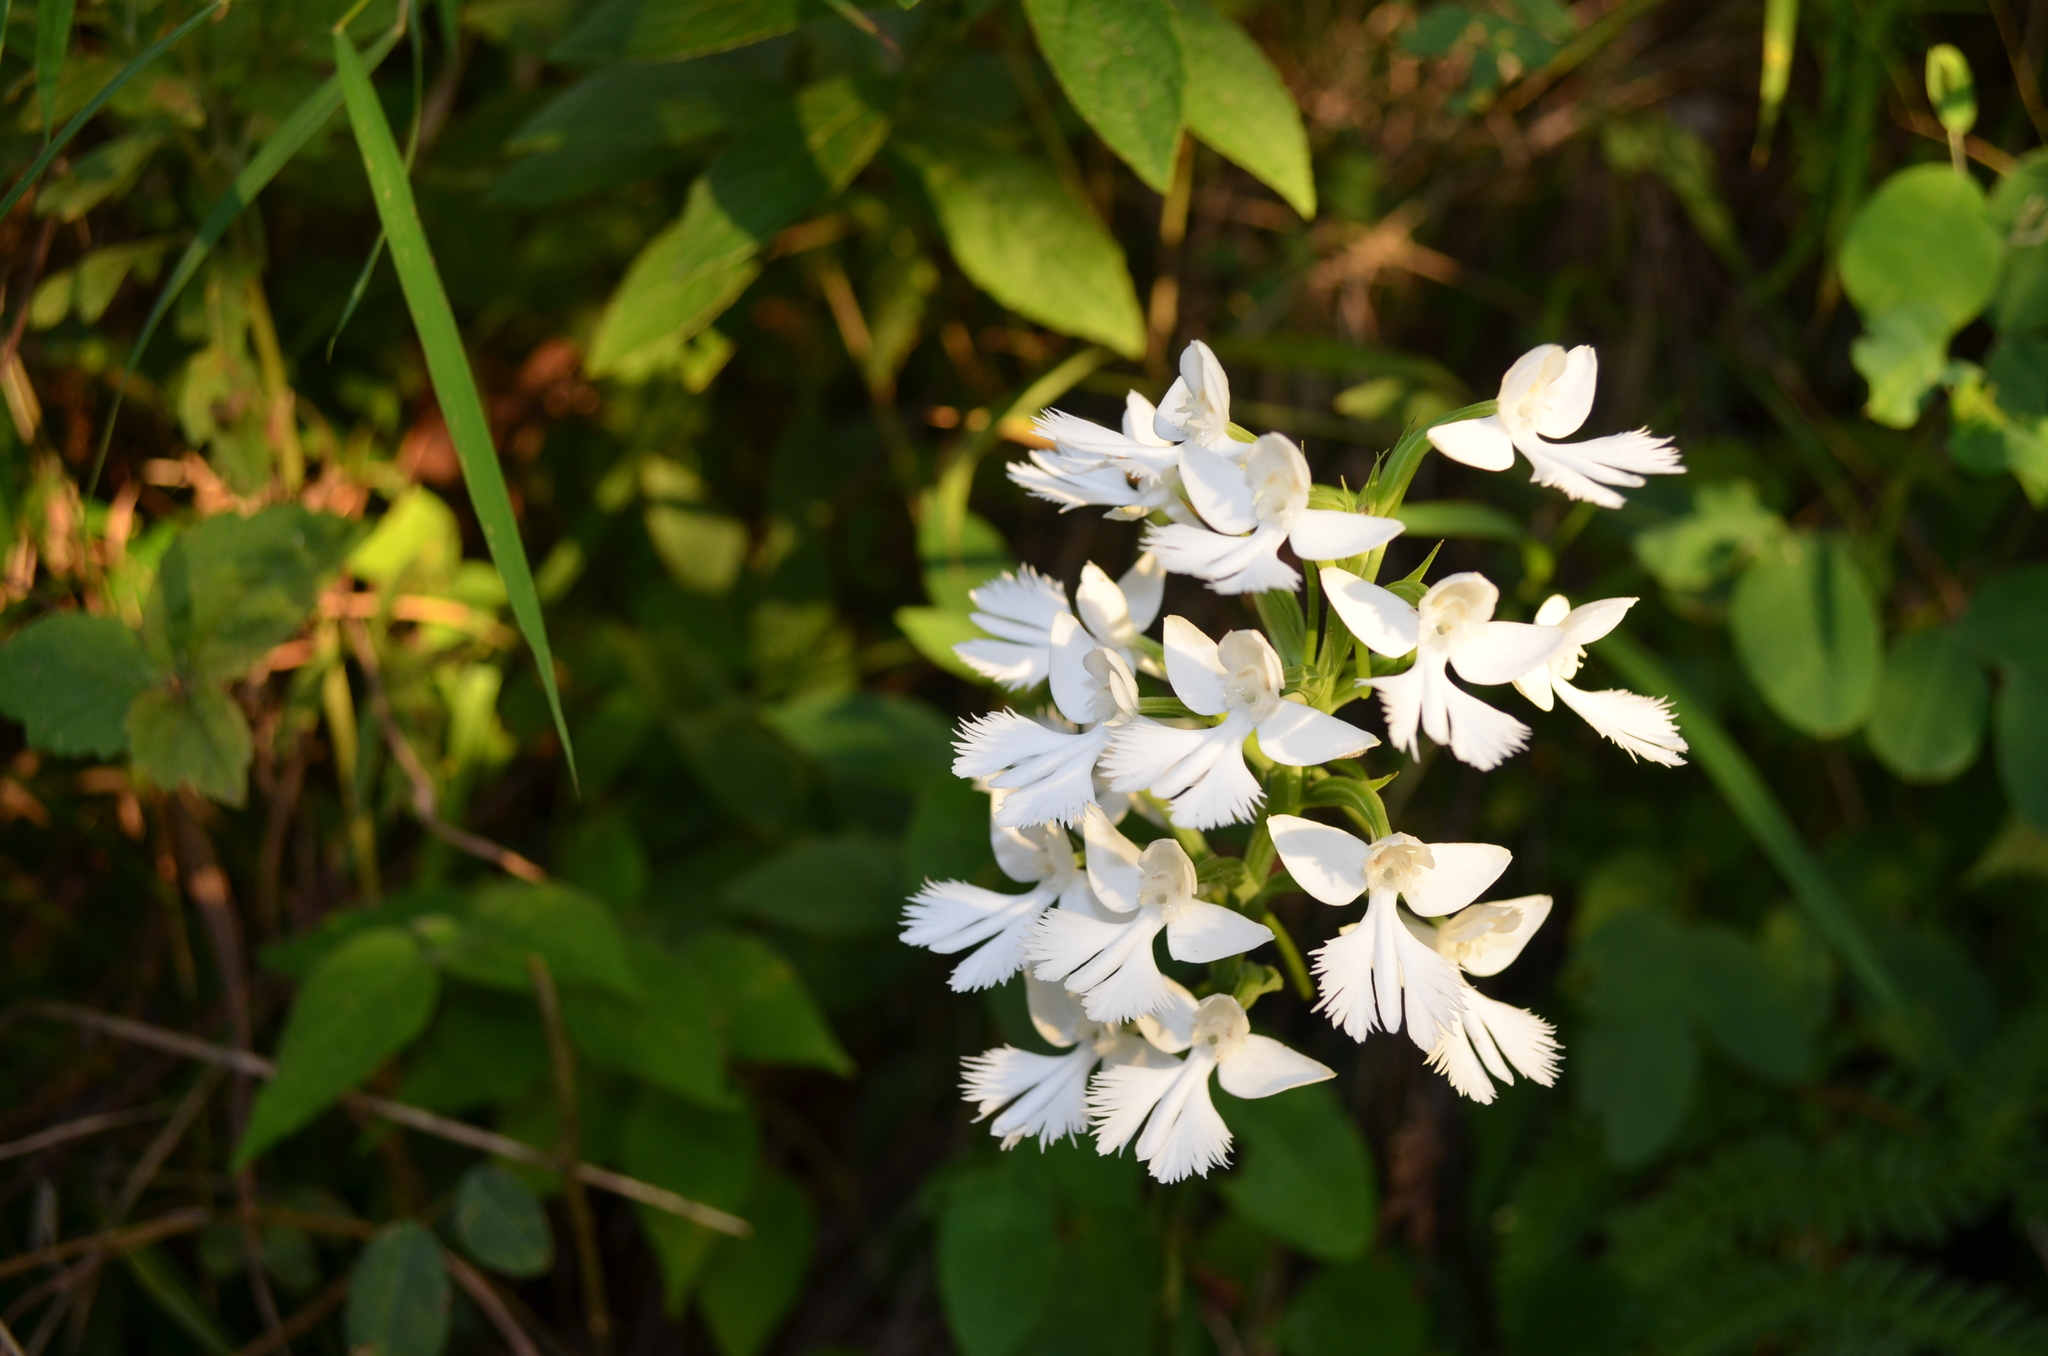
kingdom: Plantae
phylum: Tracheophyta
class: Liliopsida
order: Asparagales
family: Orchidaceae
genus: Habenaria
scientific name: Habenaria dentata
